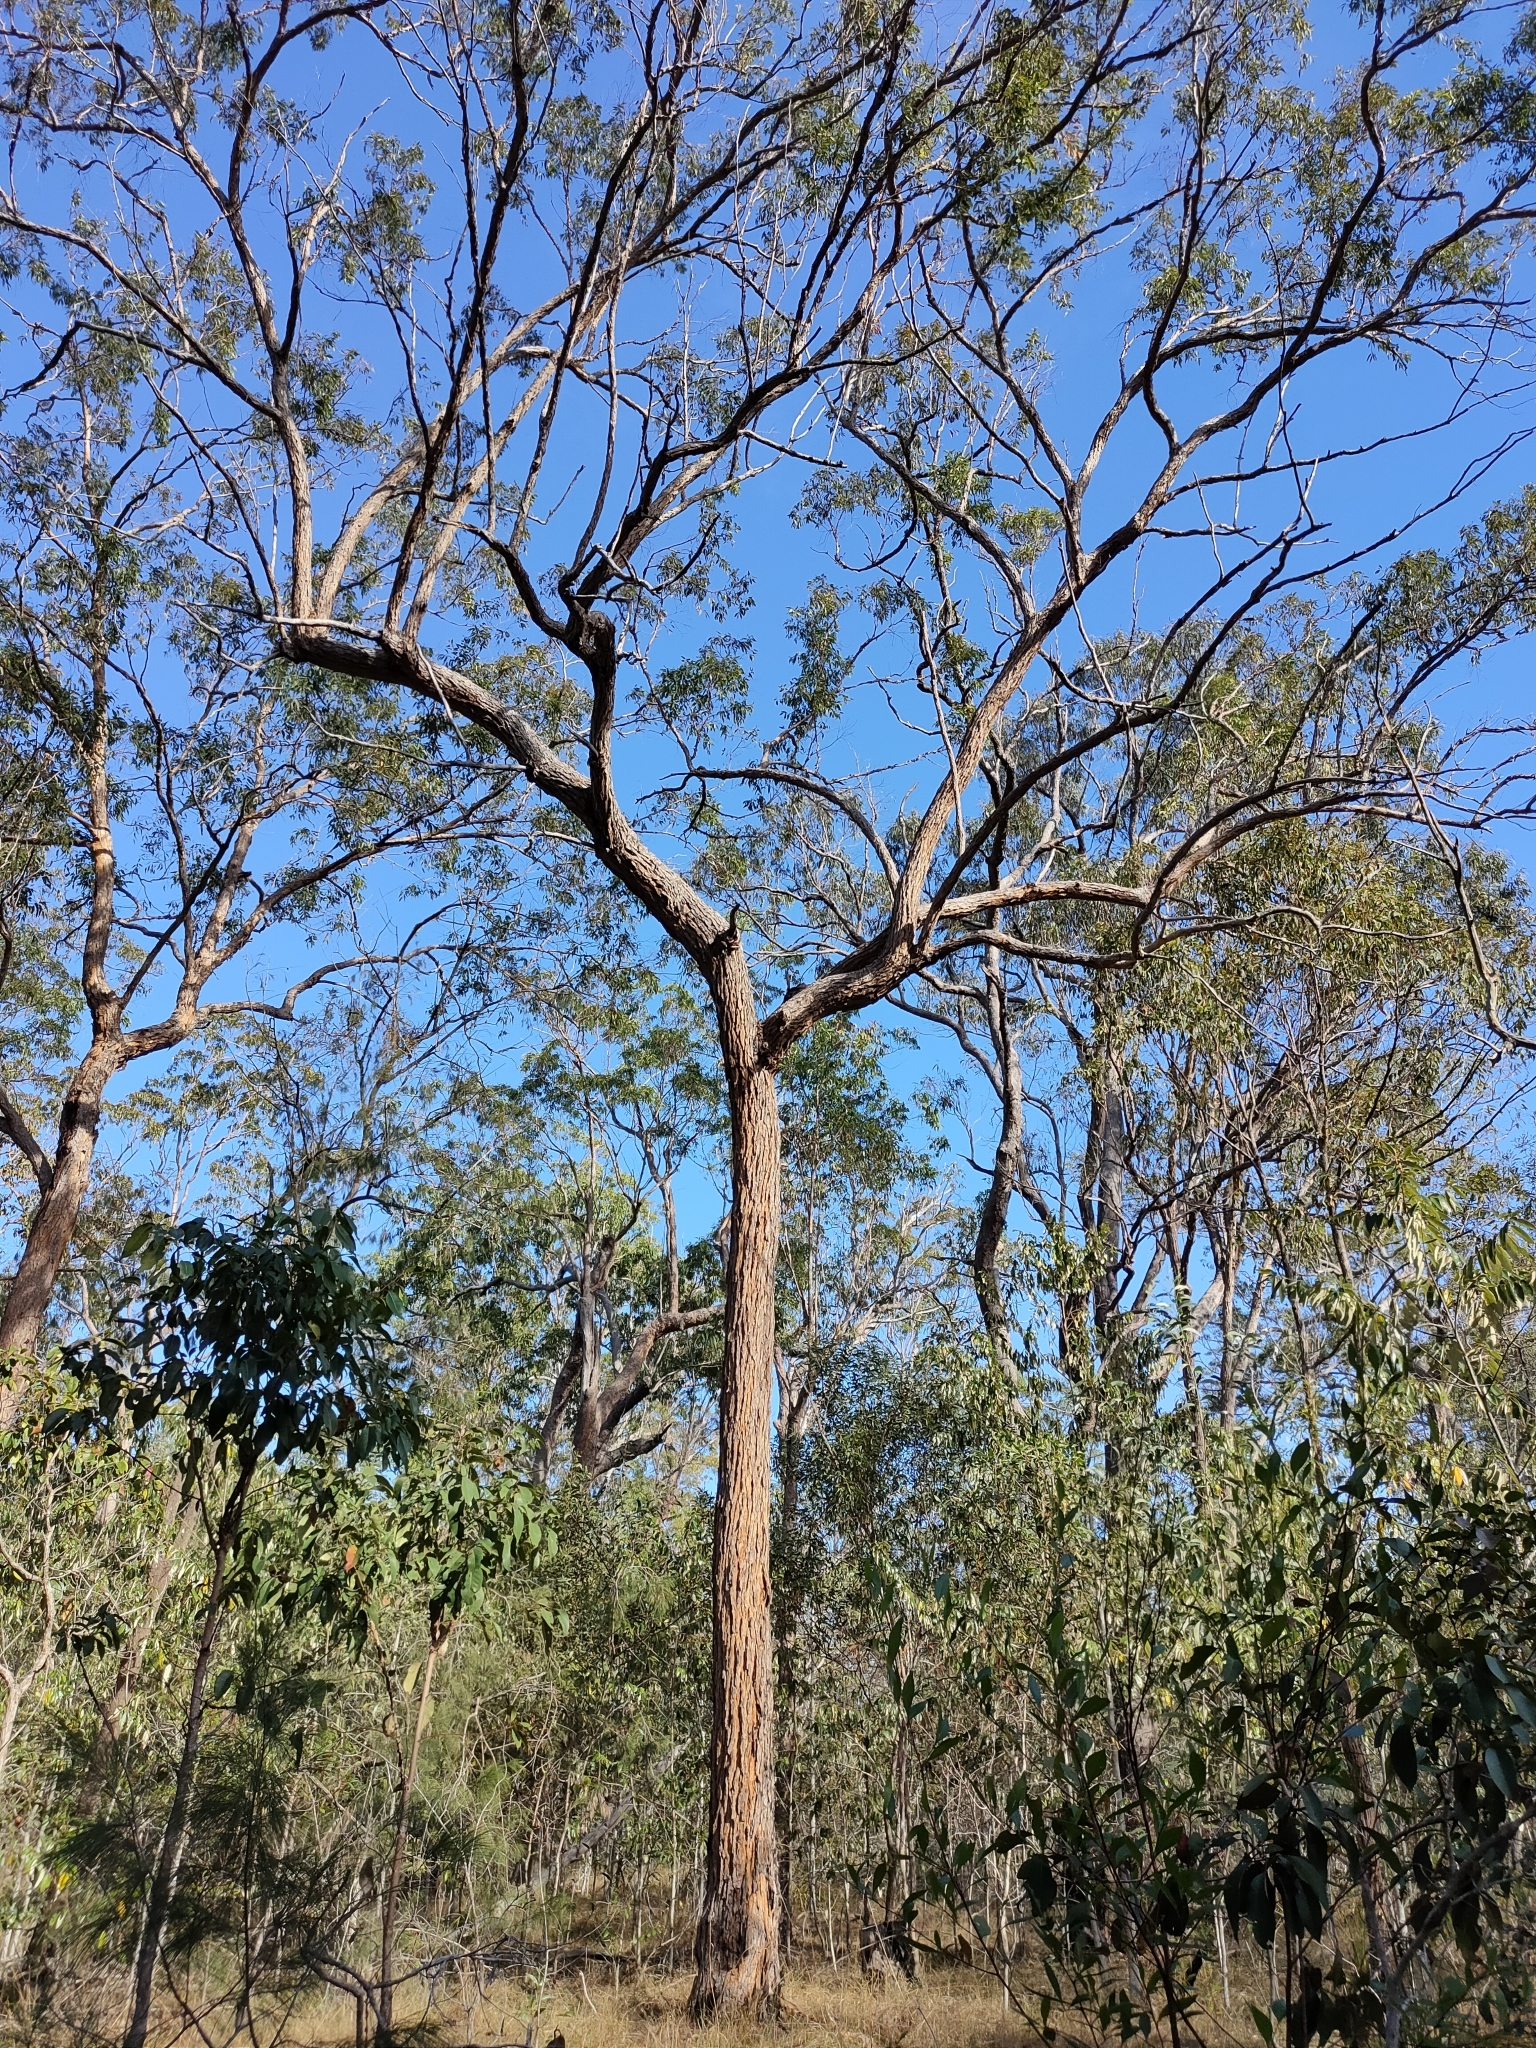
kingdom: Plantae
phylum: Tracheophyta
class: Magnoliopsida
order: Myrtales
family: Myrtaceae
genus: Corymbia
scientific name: Corymbia trachyphloia
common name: Brown-bloodwood
